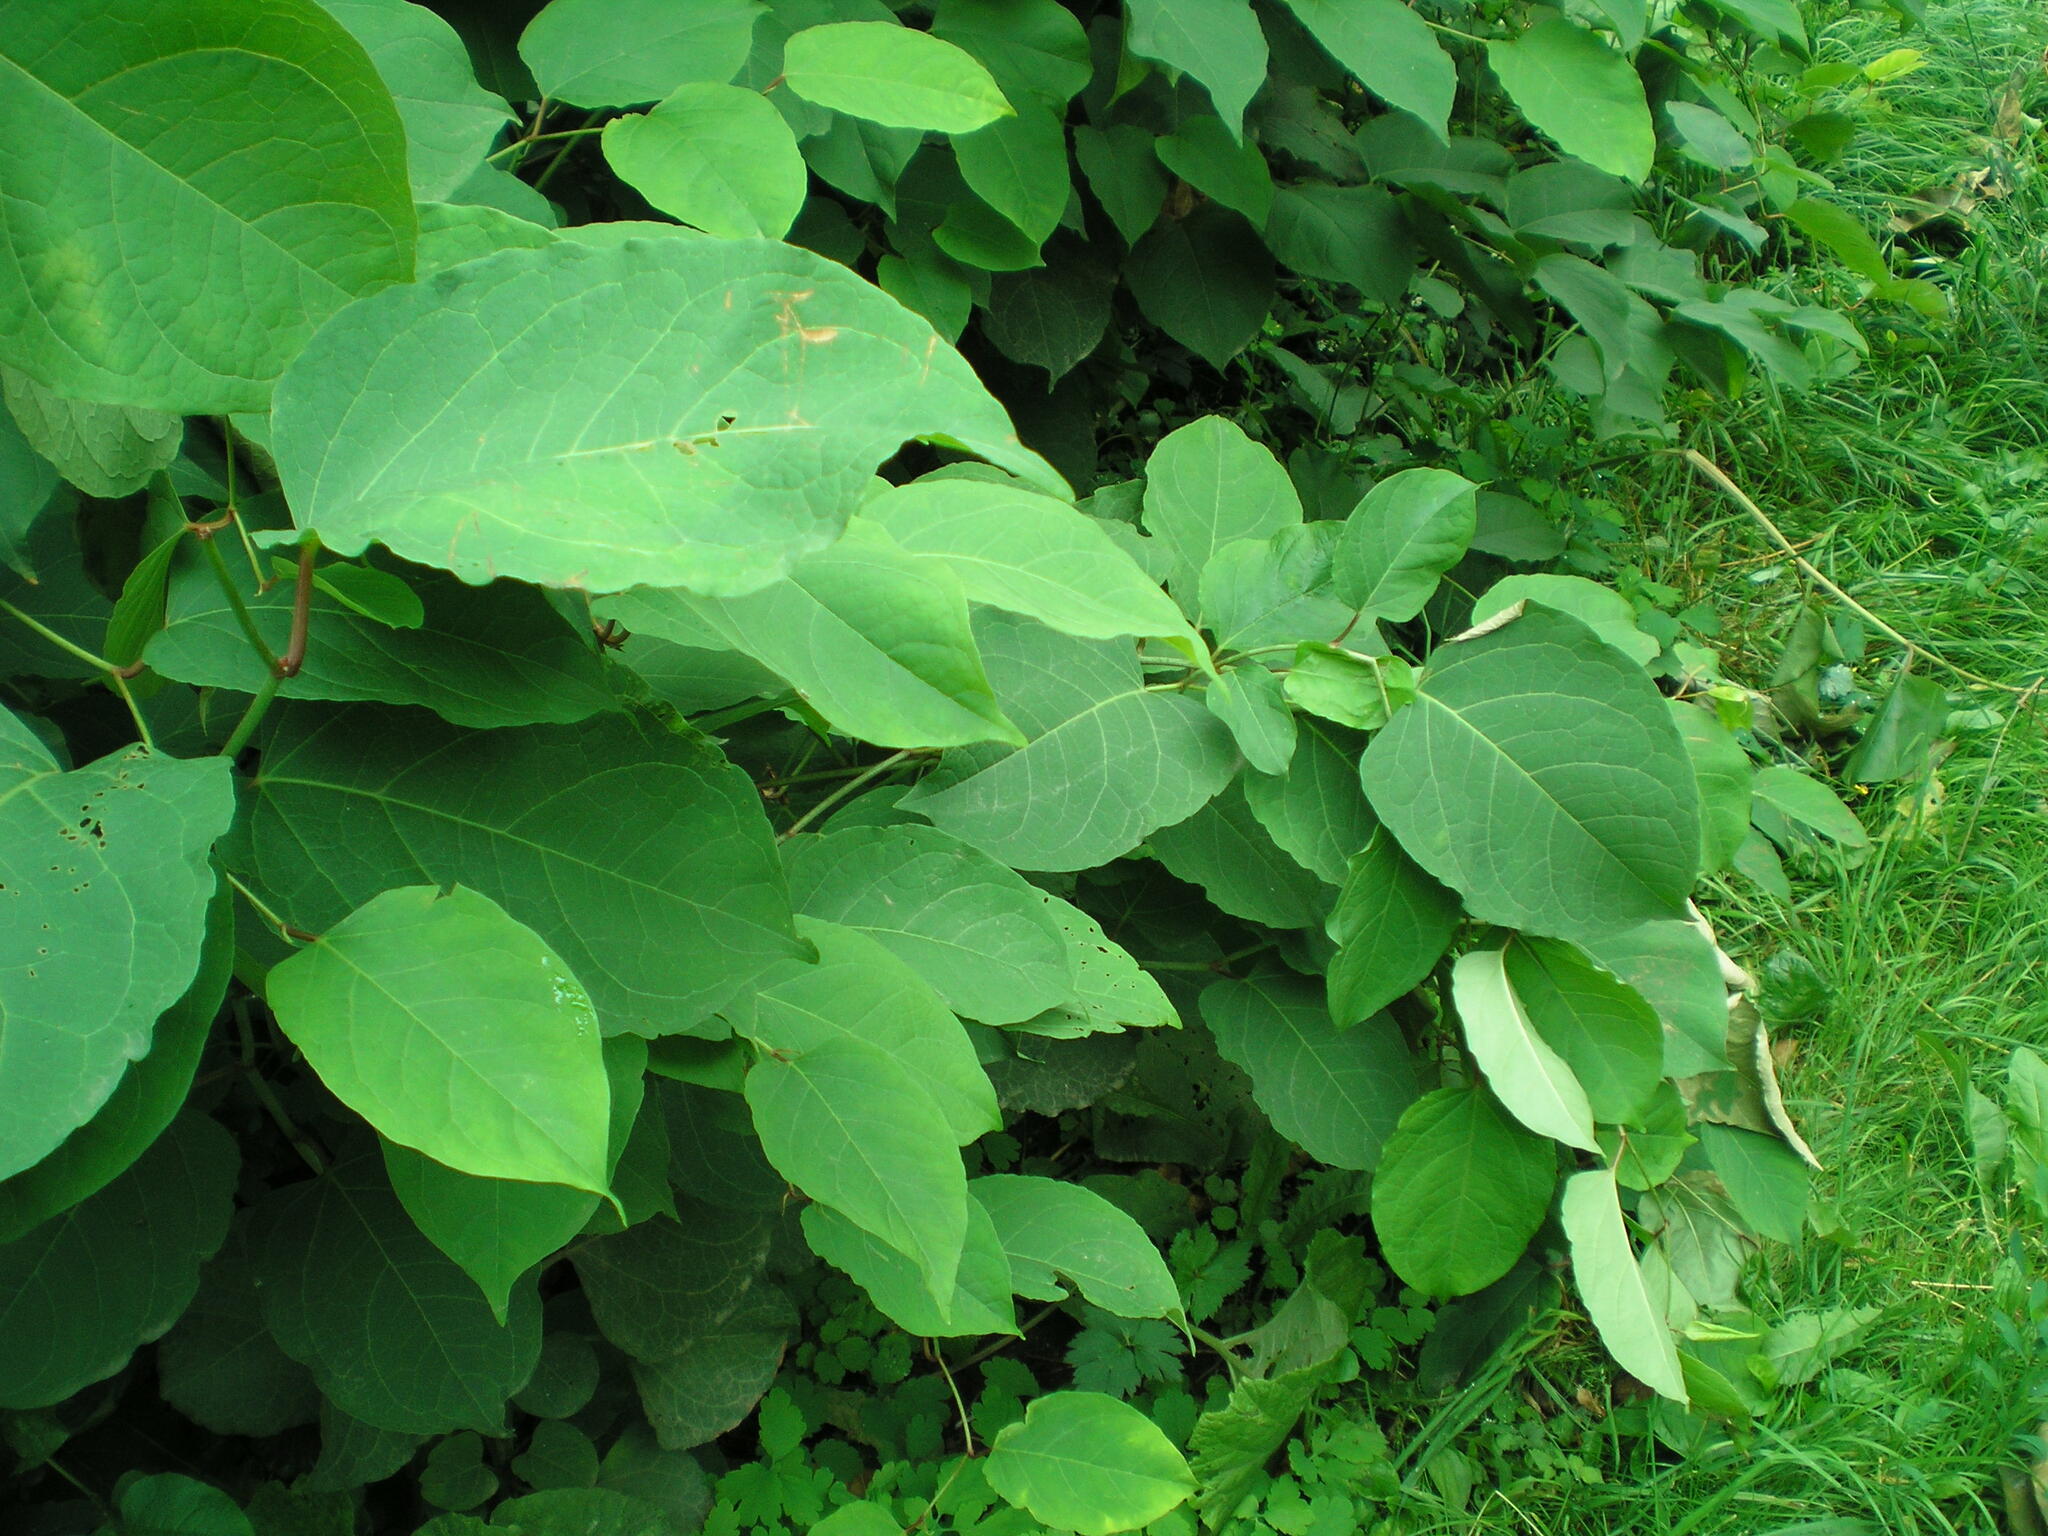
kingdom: Plantae
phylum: Tracheophyta
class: Magnoliopsida
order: Caryophyllales
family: Polygonaceae
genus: Reynoutria
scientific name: Reynoutria bohemica
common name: Bohemian knotweed
